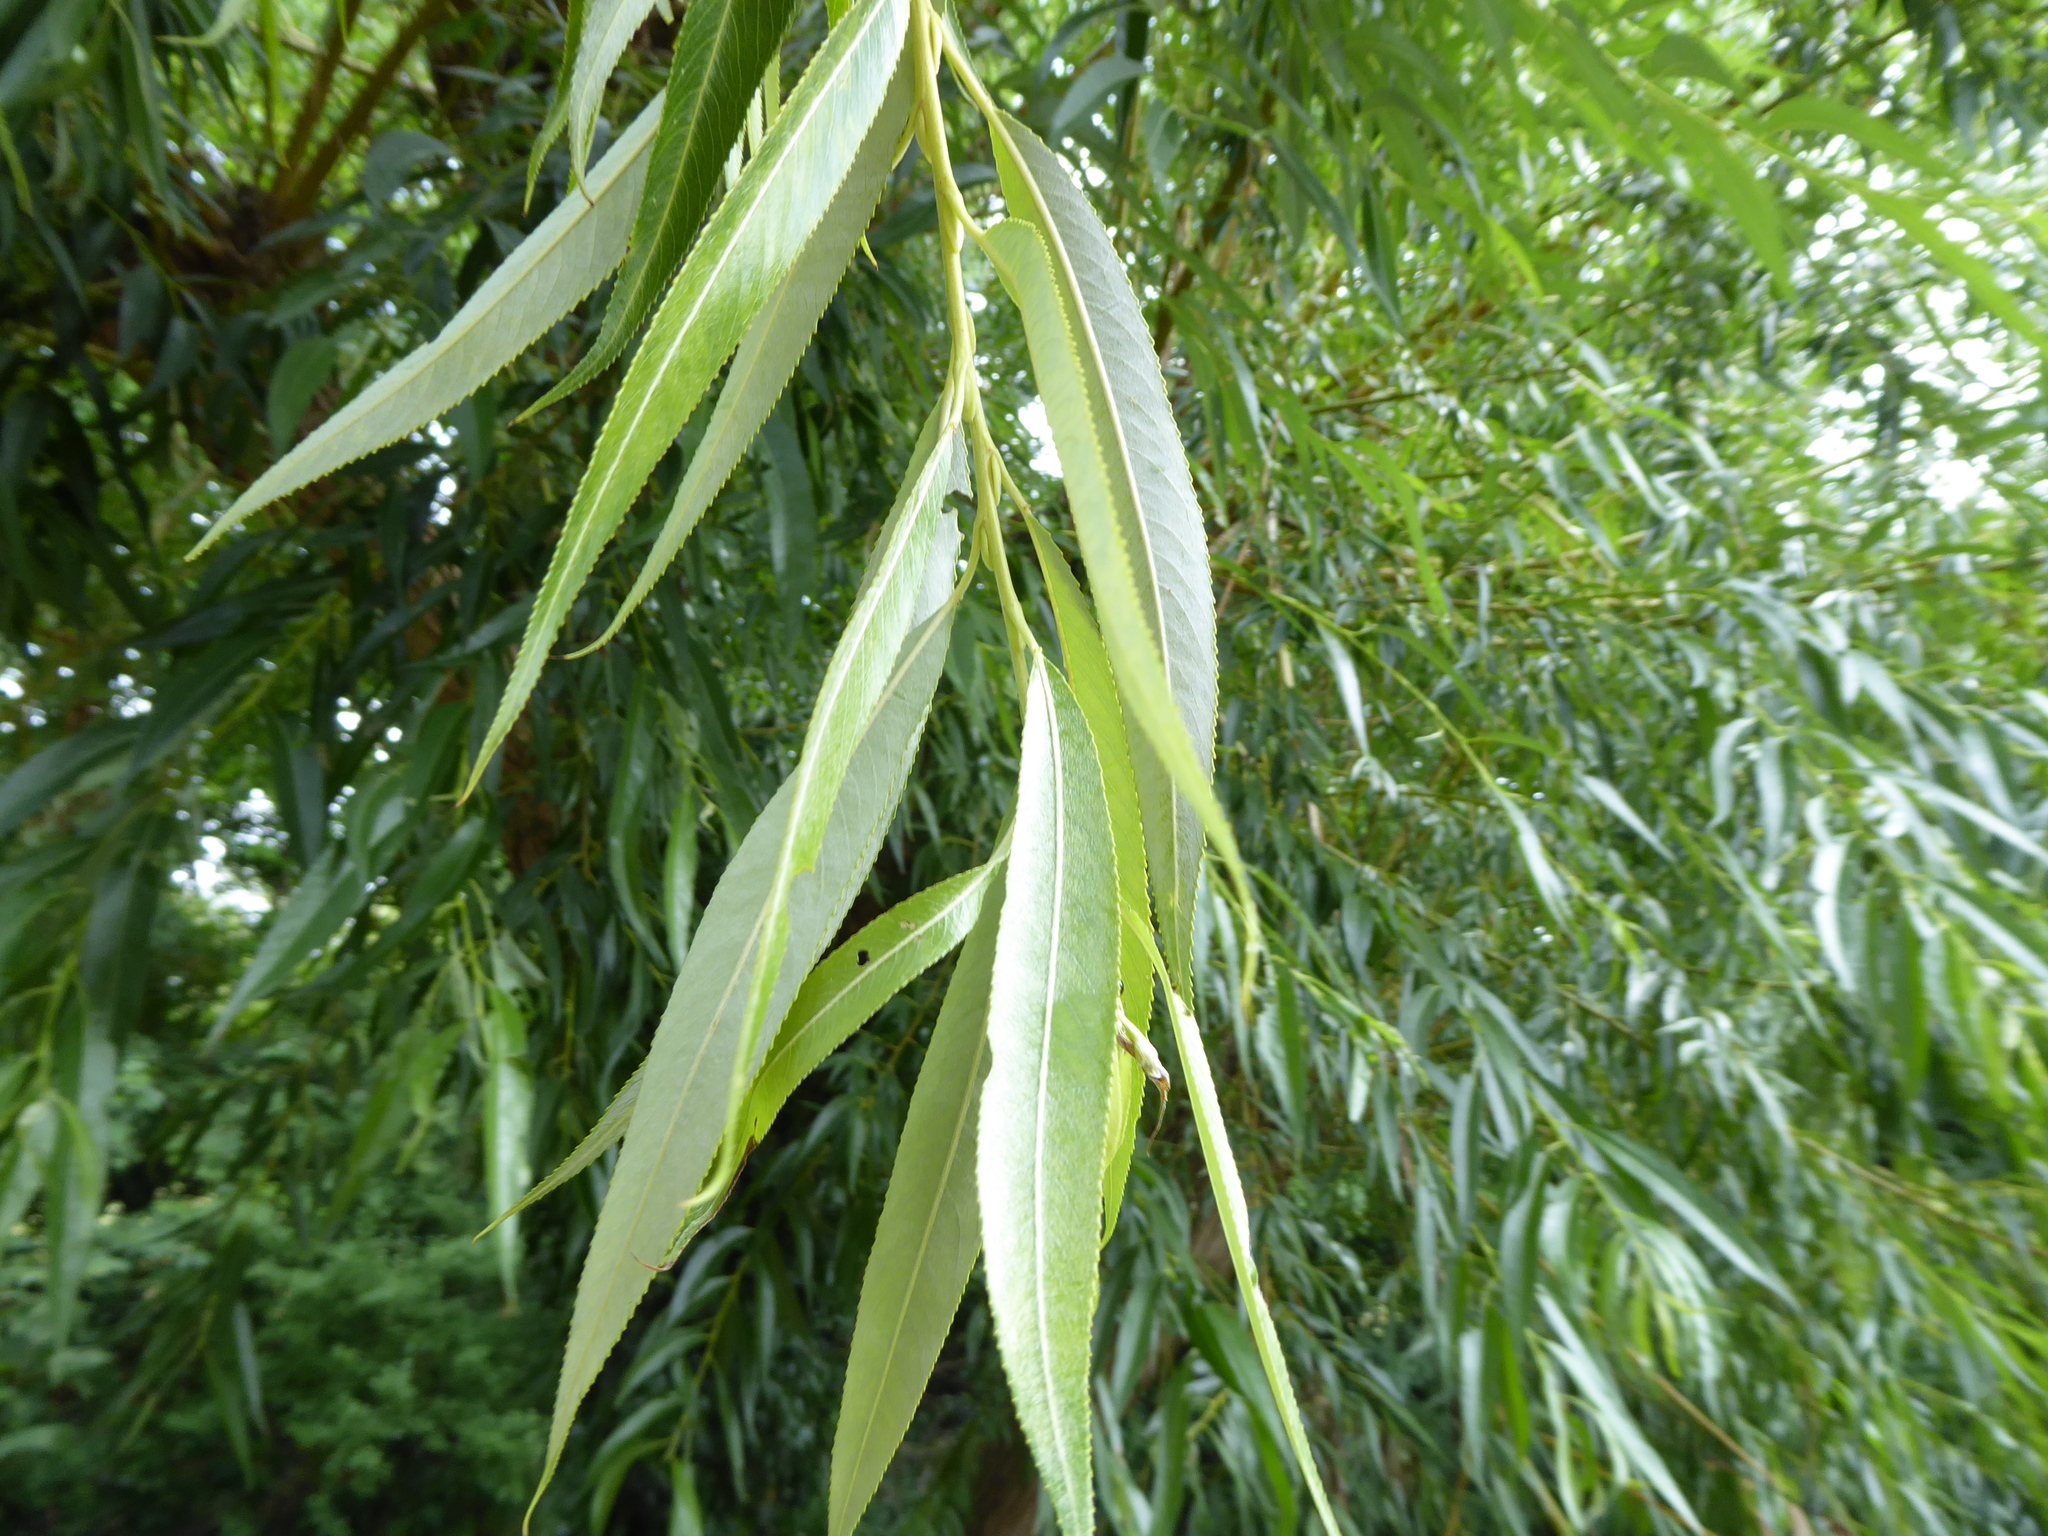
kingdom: Plantae
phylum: Tracheophyta
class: Magnoliopsida
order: Malpighiales
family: Salicaceae
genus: Salix
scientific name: Salix fragilis
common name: Crack willow
